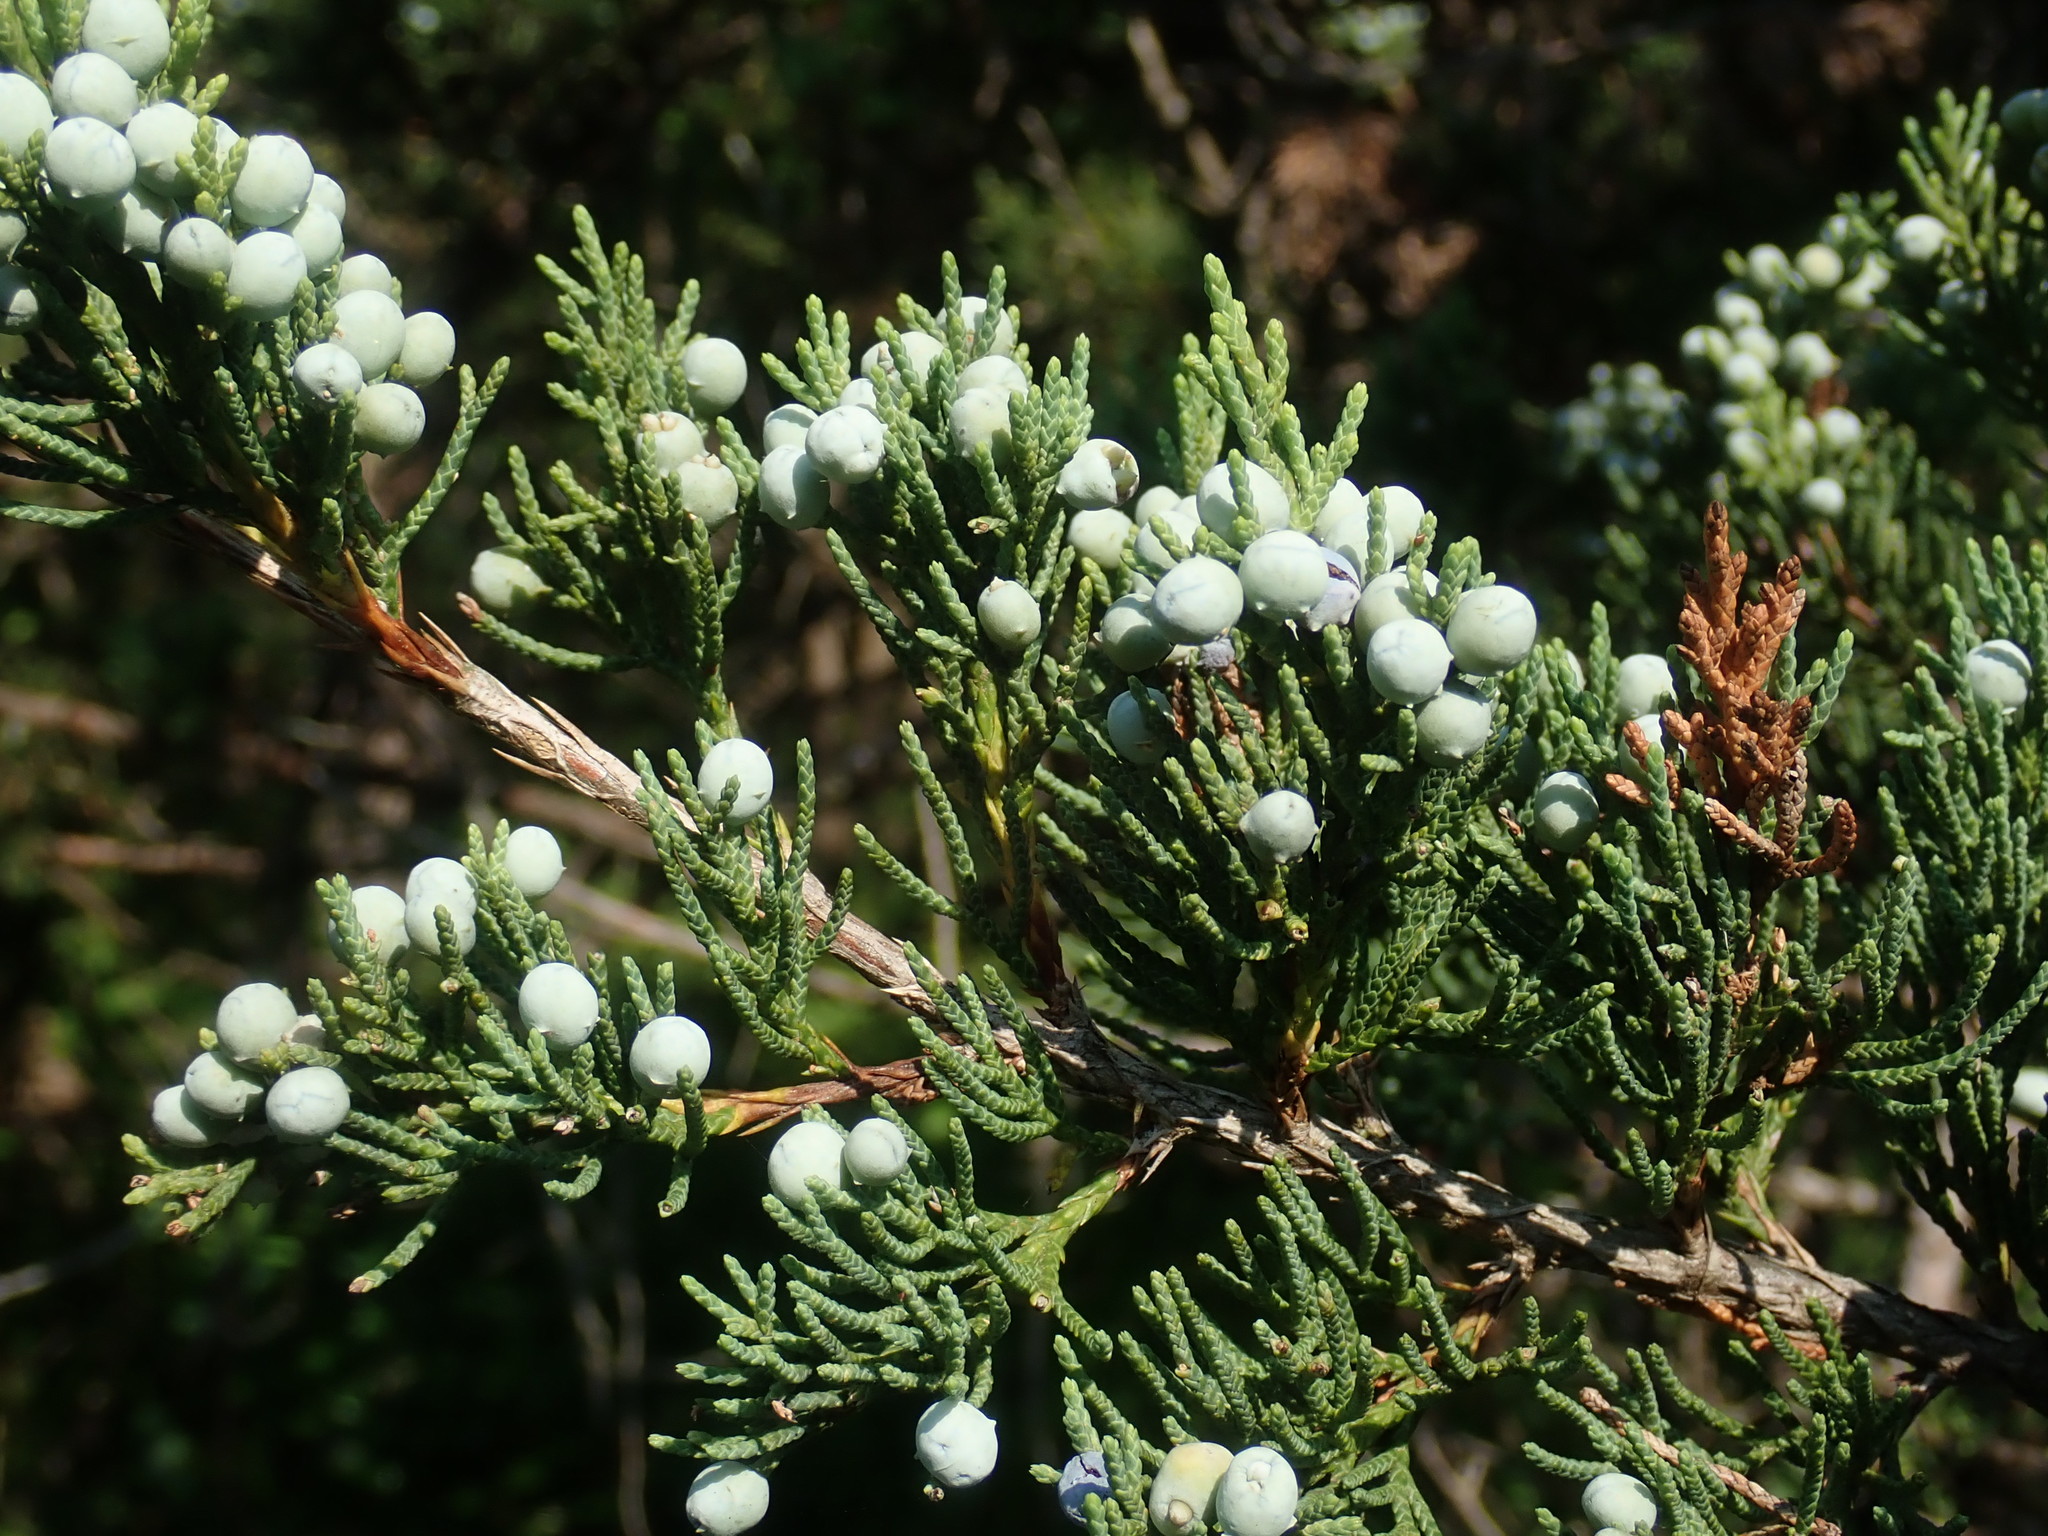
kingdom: Plantae
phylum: Tracheophyta
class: Pinopsida
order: Pinales
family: Cupressaceae
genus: Juniperus
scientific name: Juniperus virginiana
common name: Red juniper
